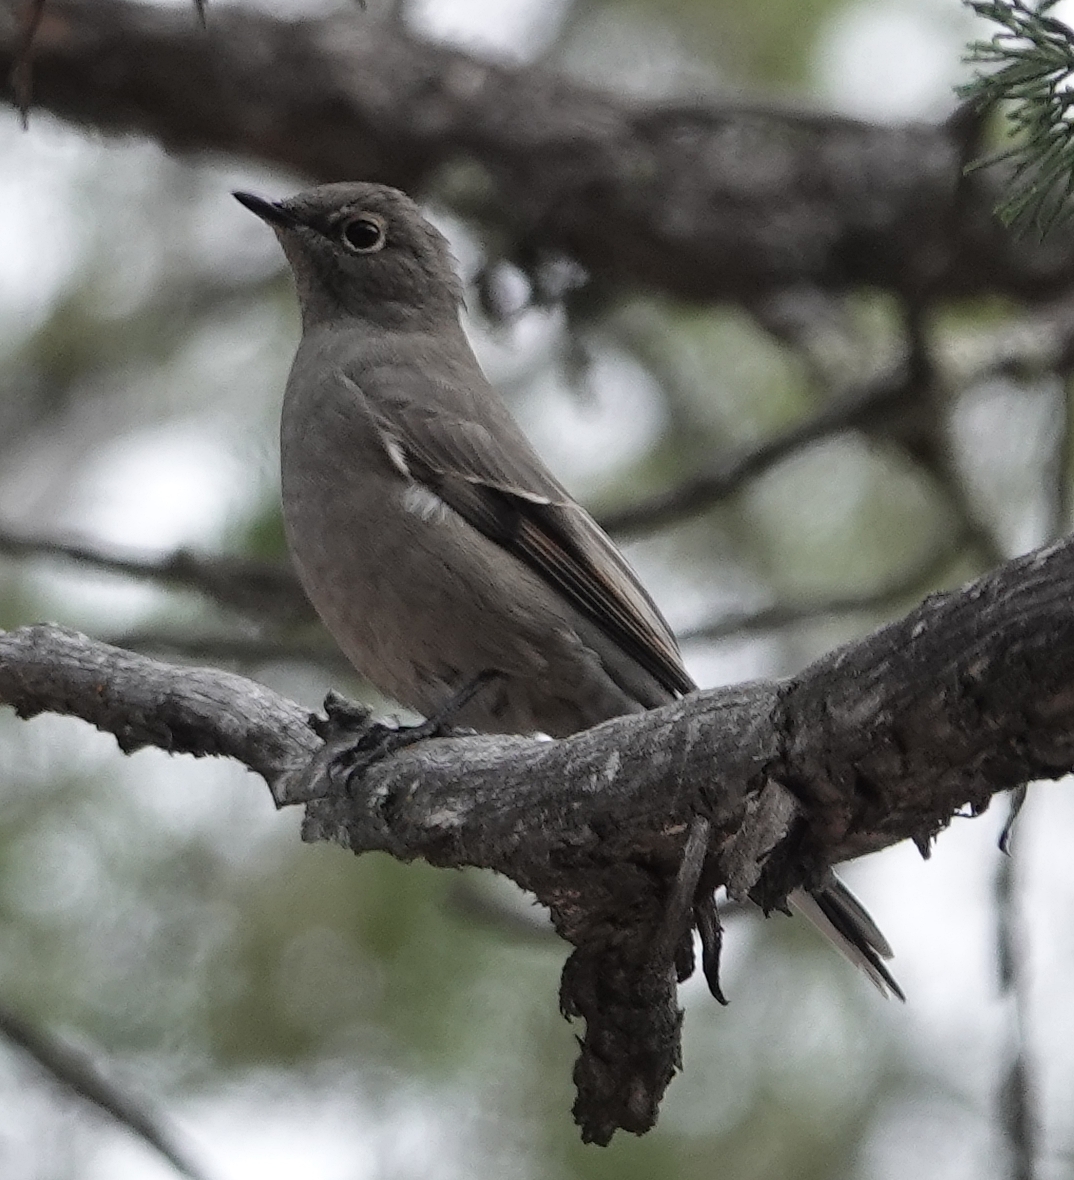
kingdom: Animalia
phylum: Chordata
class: Aves
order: Passeriformes
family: Turdidae
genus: Myadestes
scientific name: Myadestes townsendi
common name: Townsend's solitaire
